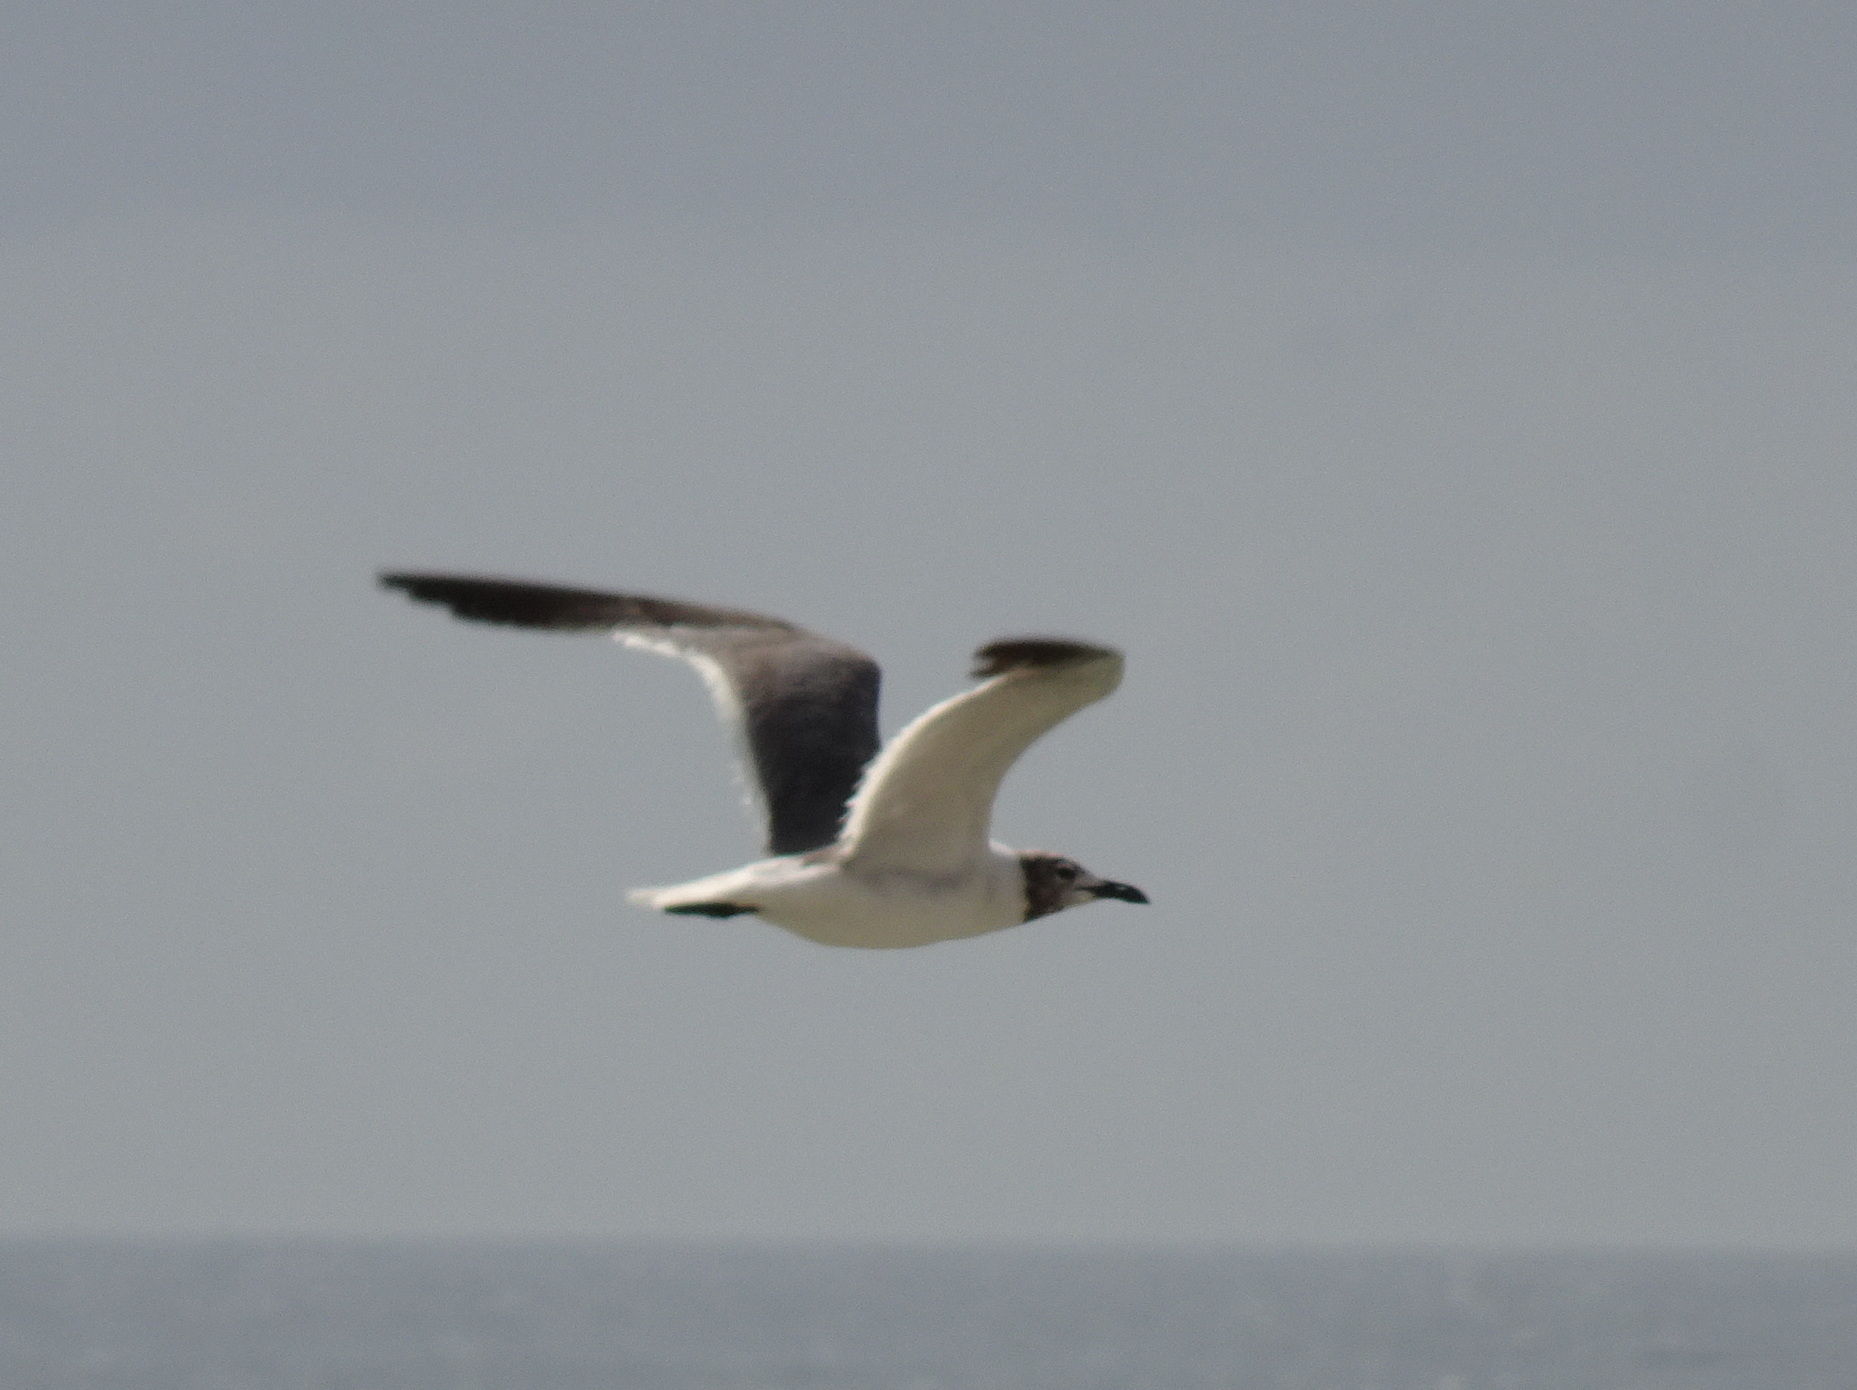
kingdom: Animalia
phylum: Chordata
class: Aves
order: Charadriiformes
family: Laridae
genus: Leucophaeus
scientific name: Leucophaeus atricilla
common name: Laughing gull
